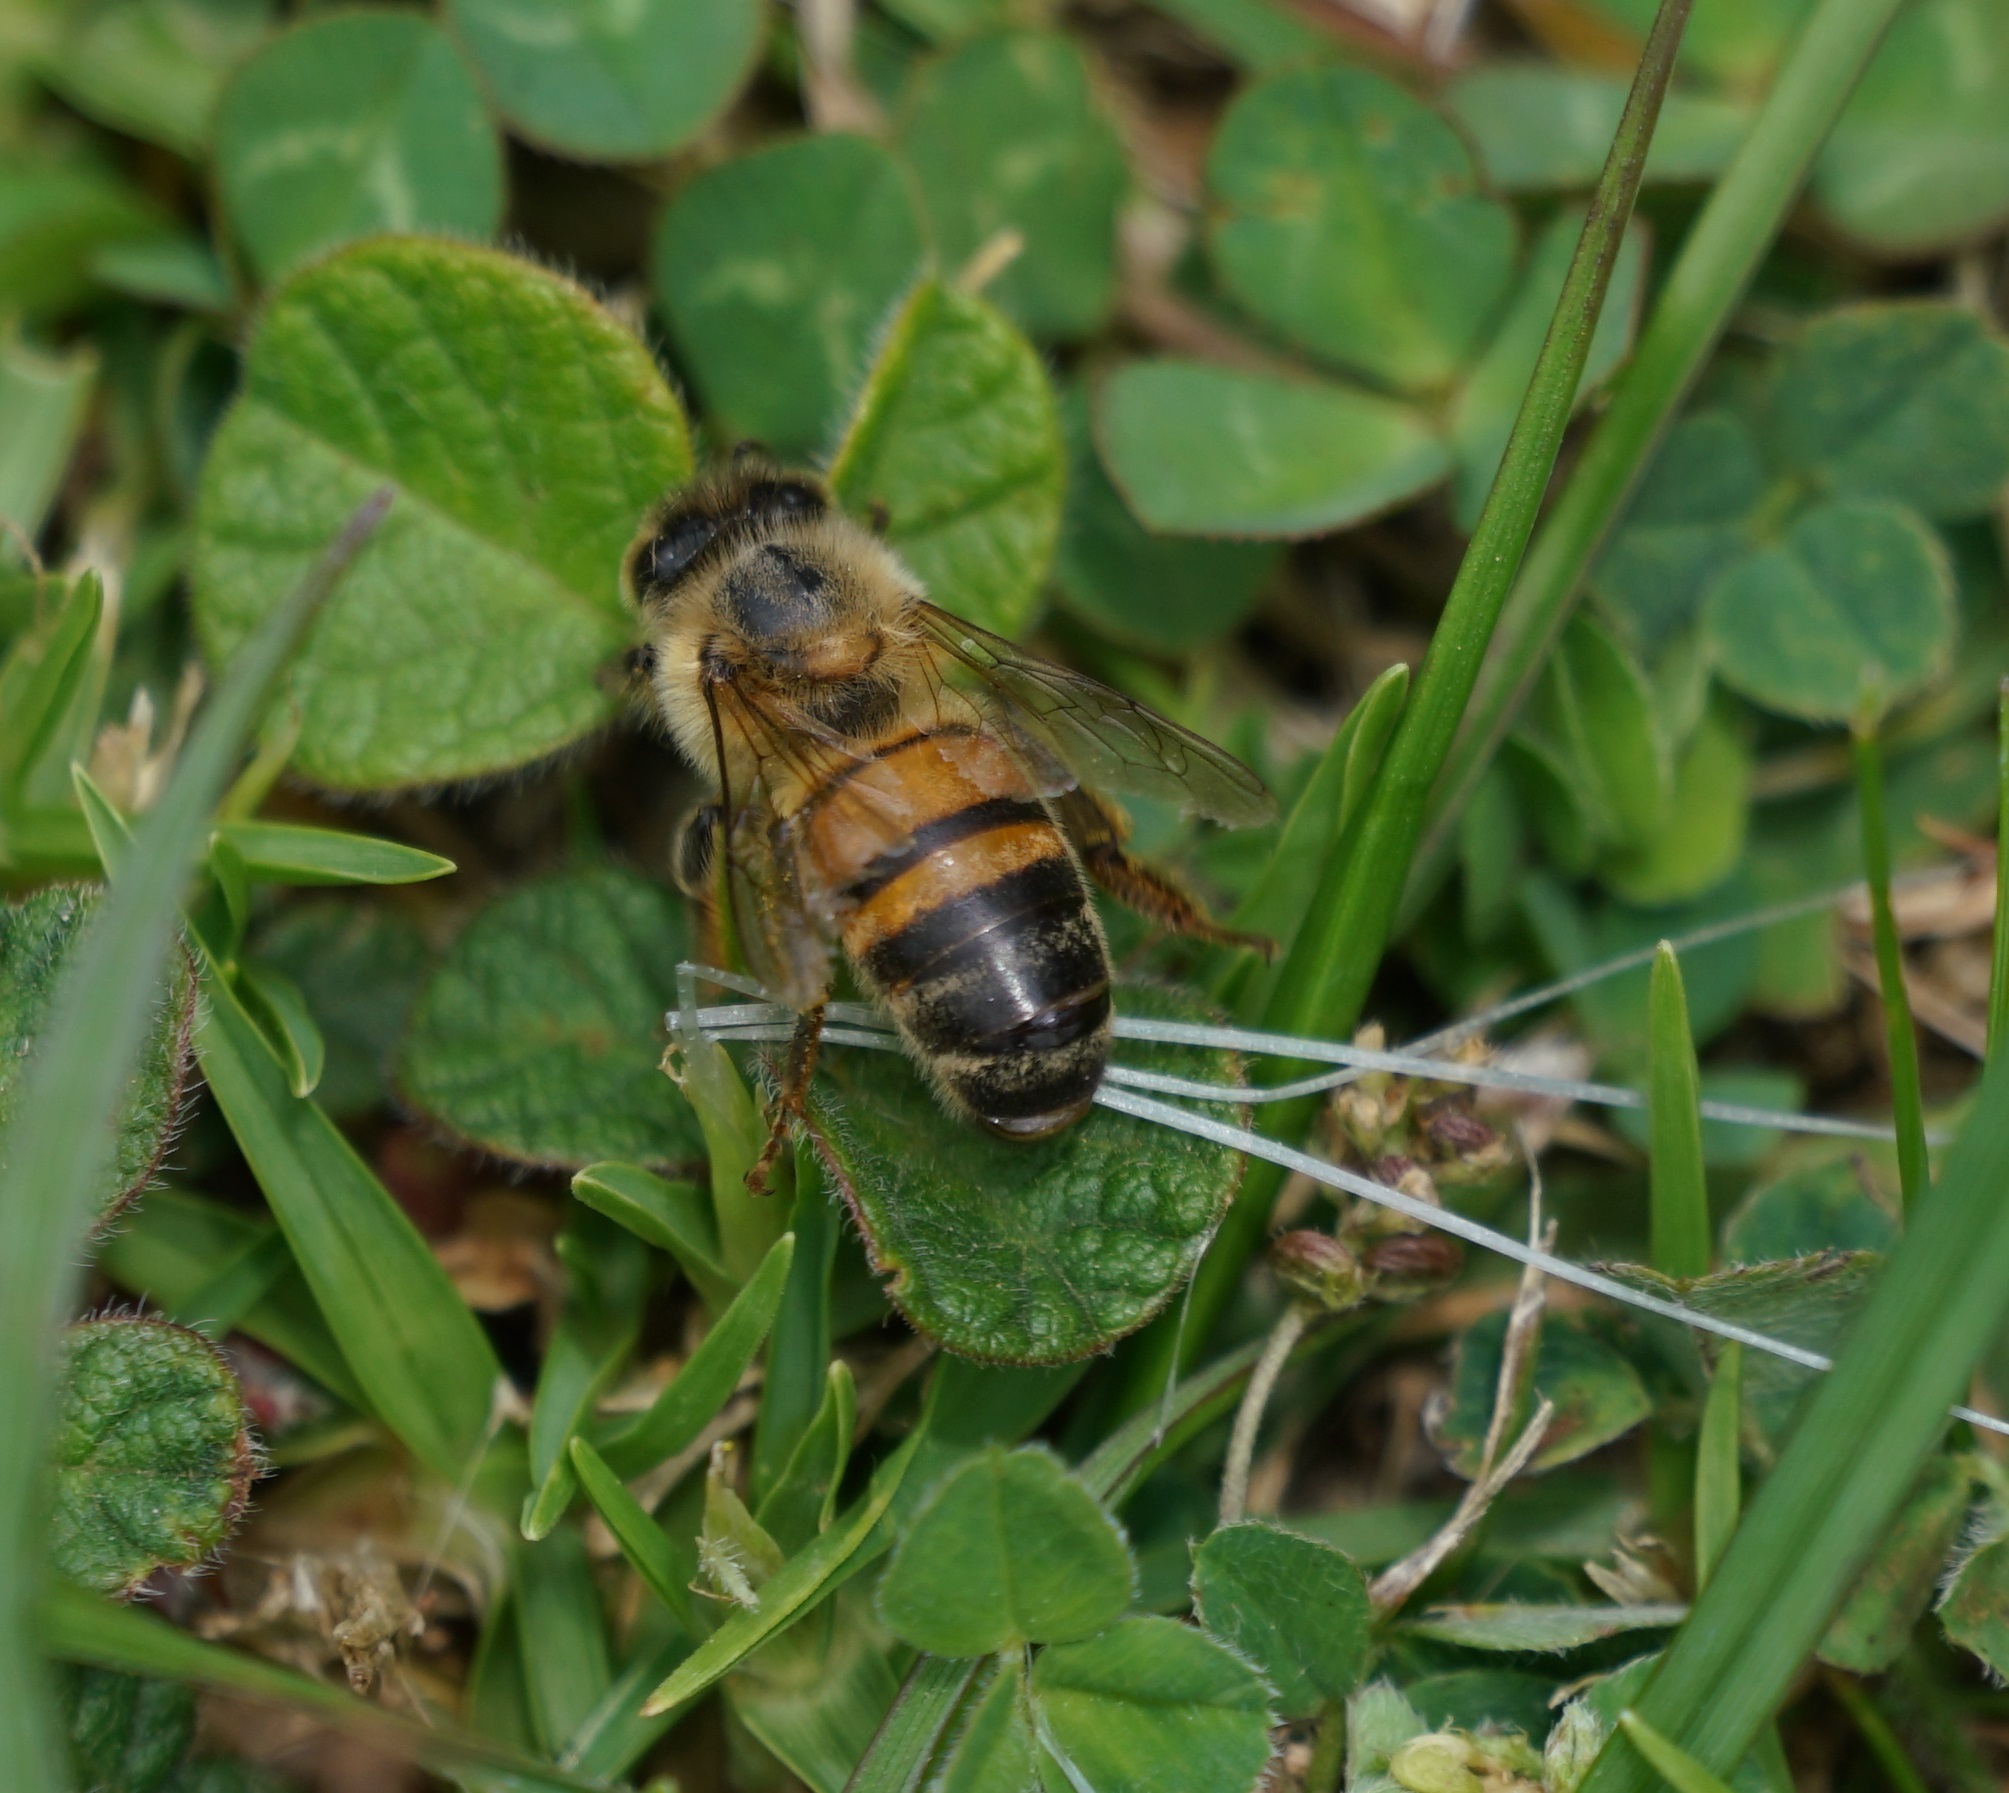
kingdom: Animalia
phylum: Arthropoda
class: Insecta
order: Hymenoptera
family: Apidae
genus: Apis
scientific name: Apis mellifera
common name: Honey bee
